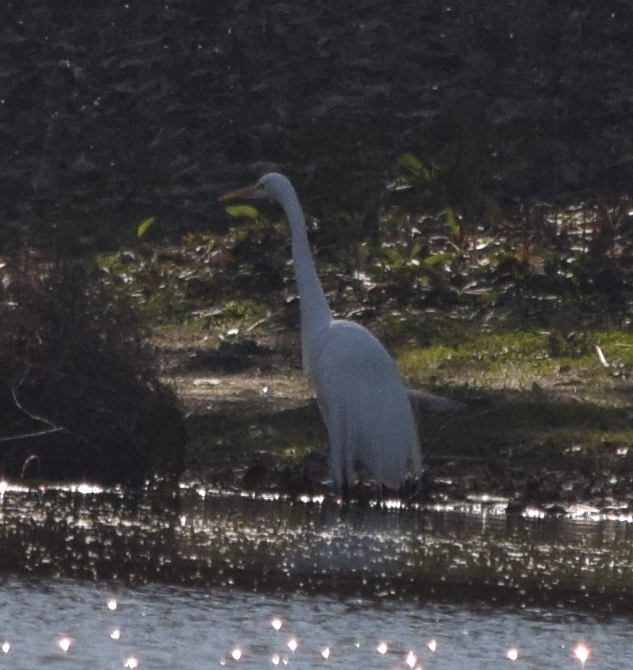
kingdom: Animalia
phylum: Chordata
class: Aves
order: Pelecaniformes
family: Ardeidae
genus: Ardea
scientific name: Ardea alba
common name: Great egret
